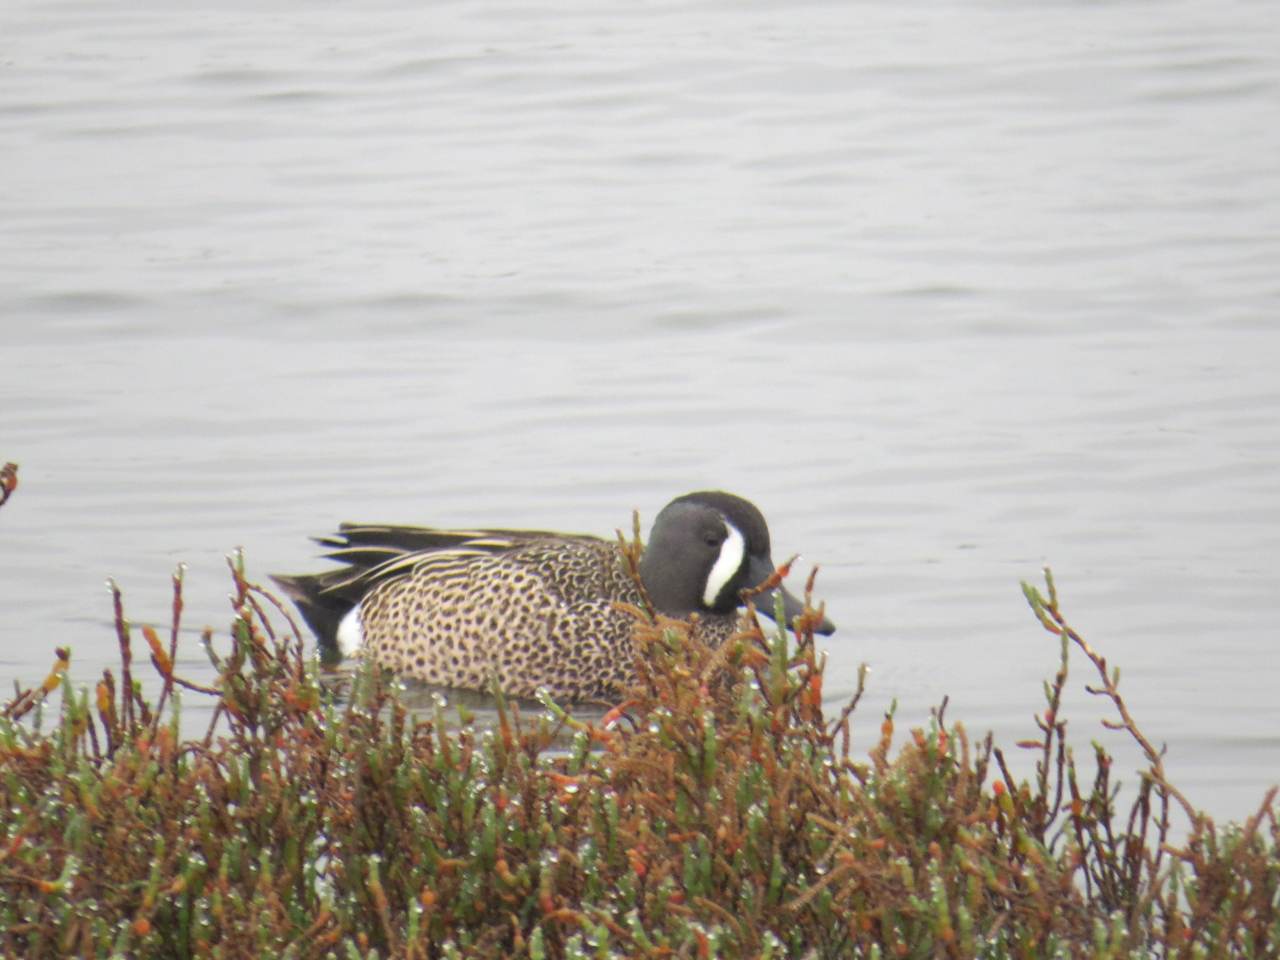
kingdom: Animalia
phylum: Chordata
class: Aves
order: Anseriformes
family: Anatidae
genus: Spatula
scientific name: Spatula discors
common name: Blue-winged teal
